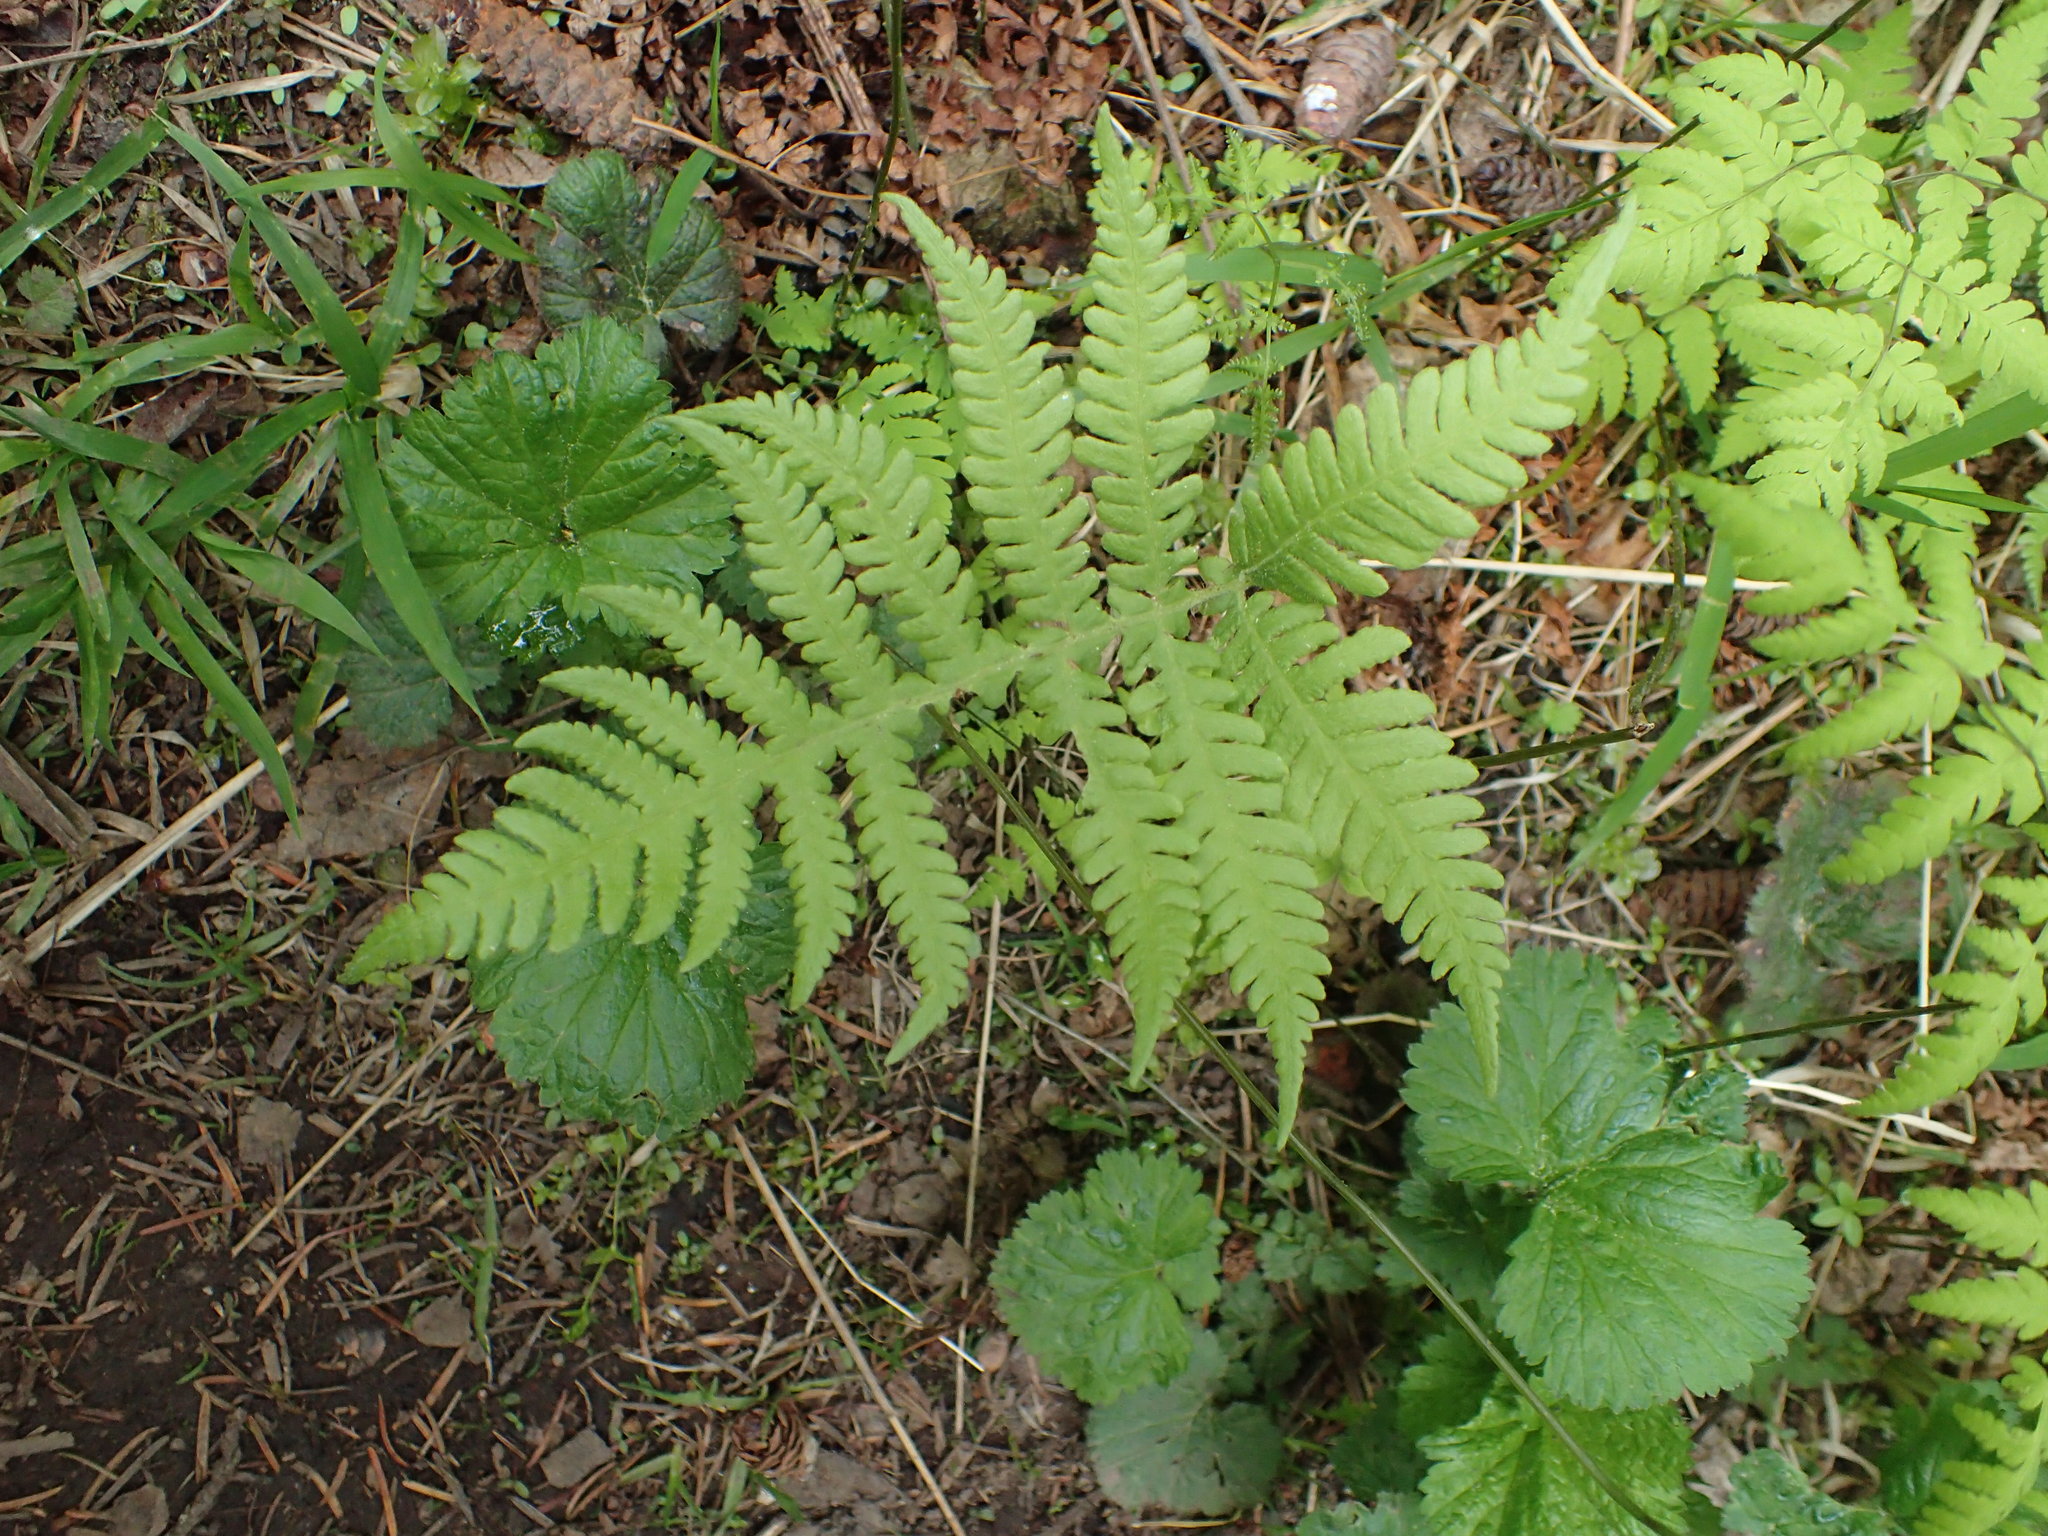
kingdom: Plantae
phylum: Tracheophyta
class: Polypodiopsida
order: Polypodiales
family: Thelypteridaceae
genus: Phegopteris
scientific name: Phegopteris connectilis
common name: Beech fern
